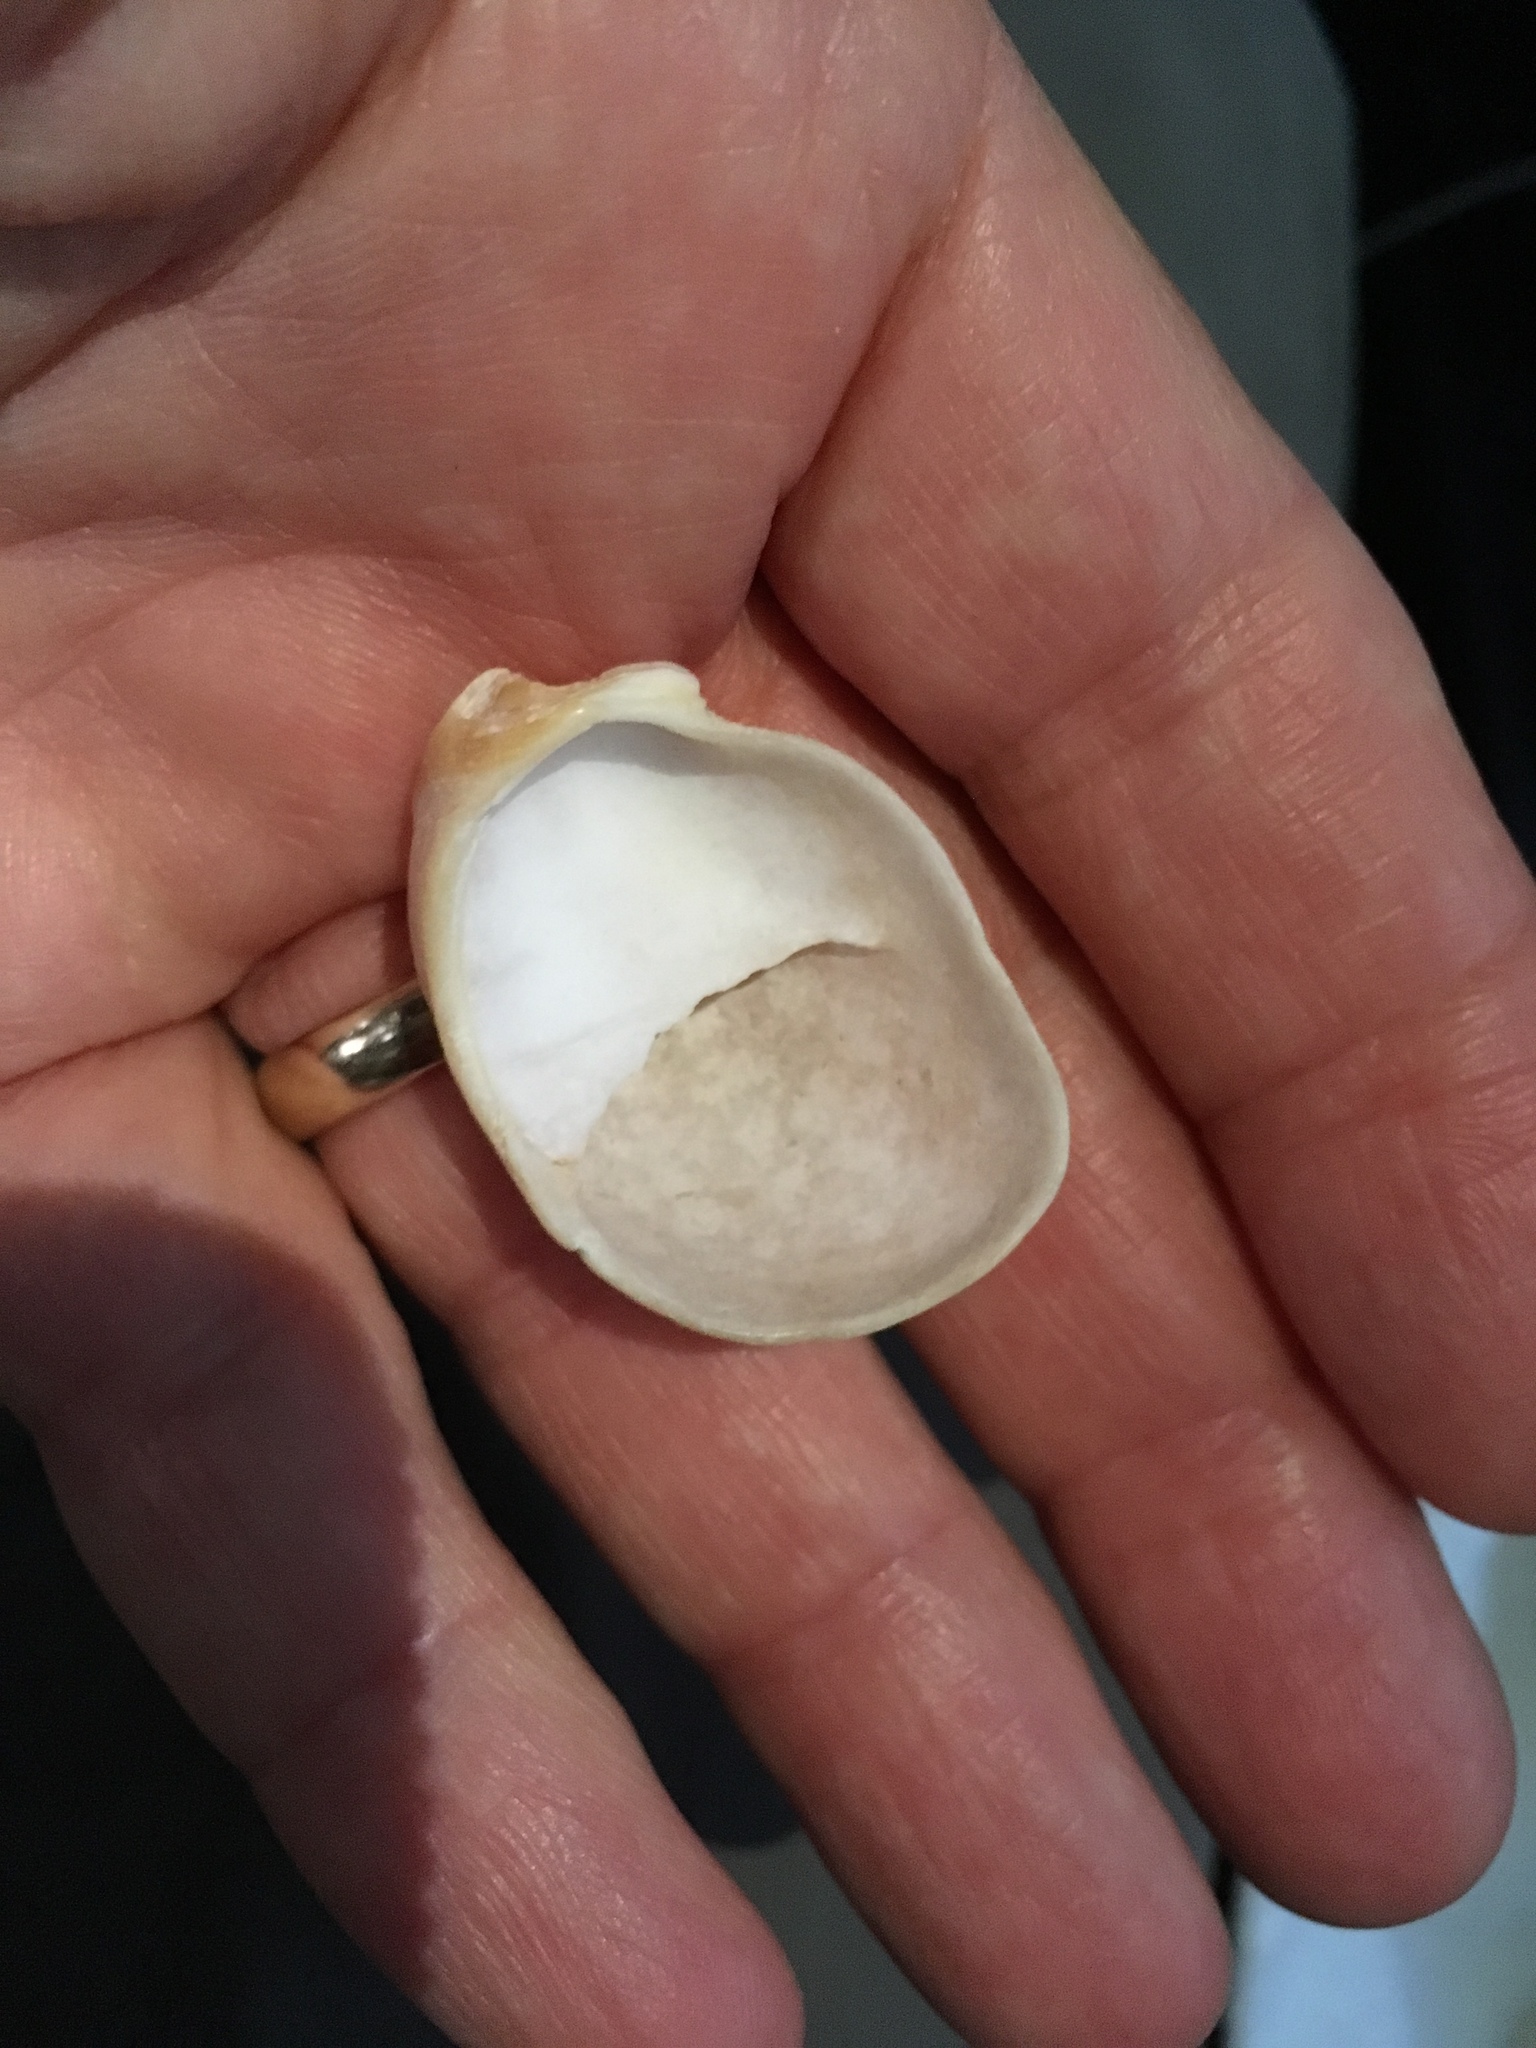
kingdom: Animalia
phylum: Mollusca
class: Gastropoda
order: Littorinimorpha
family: Calyptraeidae
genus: Crepidula
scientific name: Crepidula fornicata
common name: Slipper limpet
